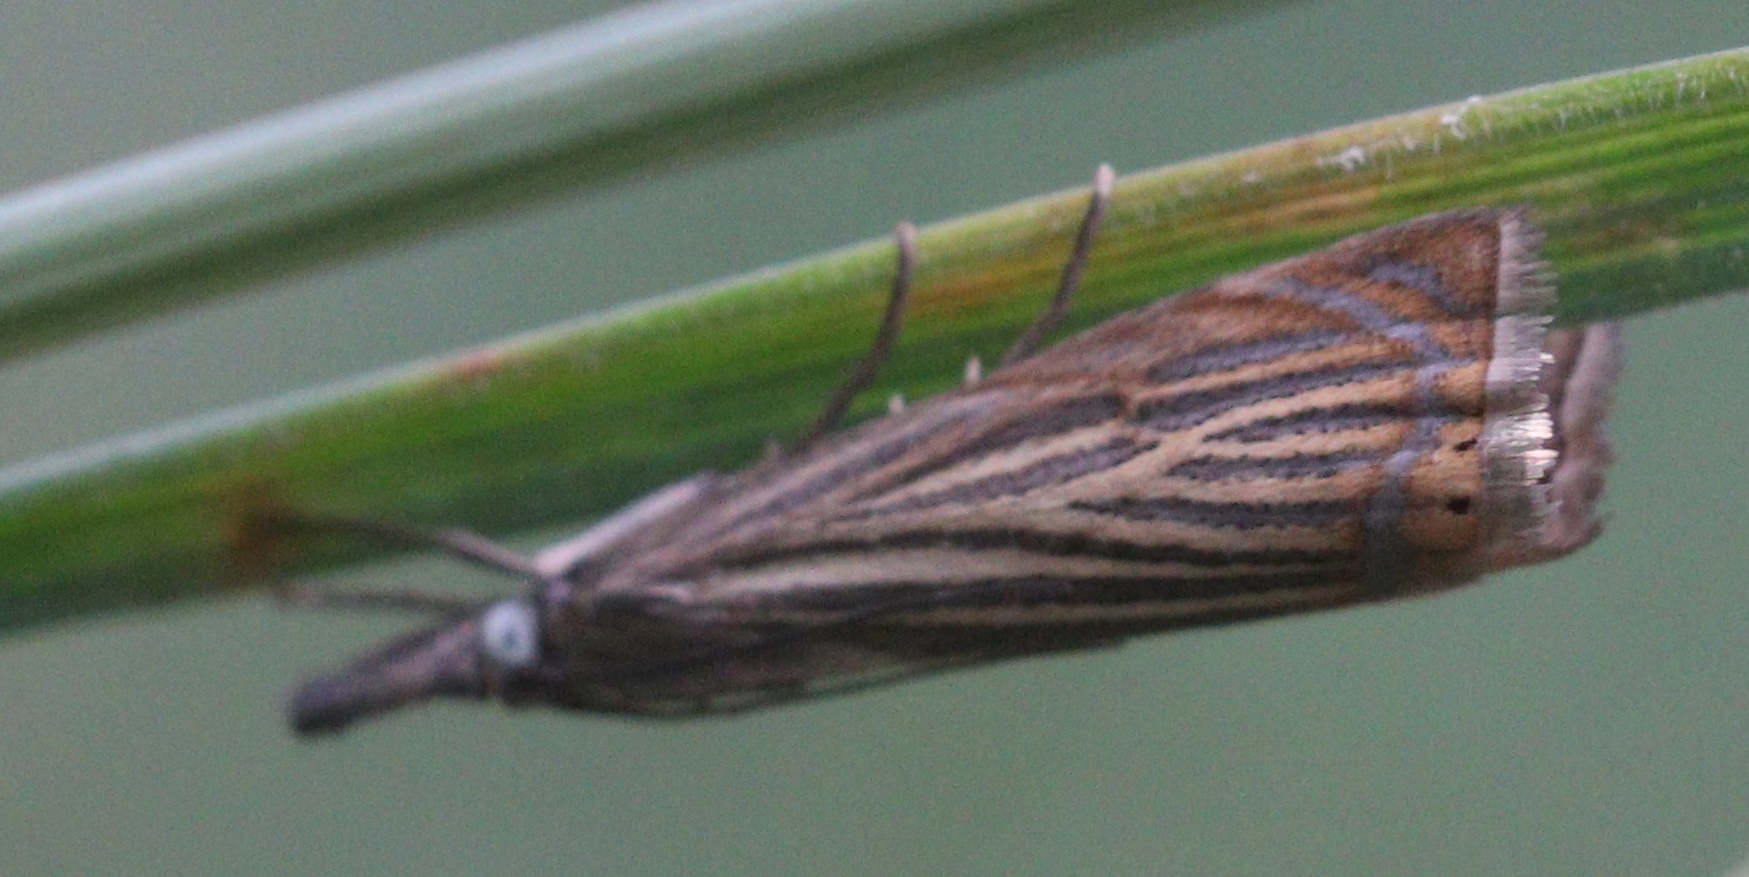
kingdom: Animalia
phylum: Arthropoda
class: Insecta
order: Lepidoptera
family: Crambidae
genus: Chrysoteuchia
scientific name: Chrysoteuchia culmella
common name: Garden grass-veneer
